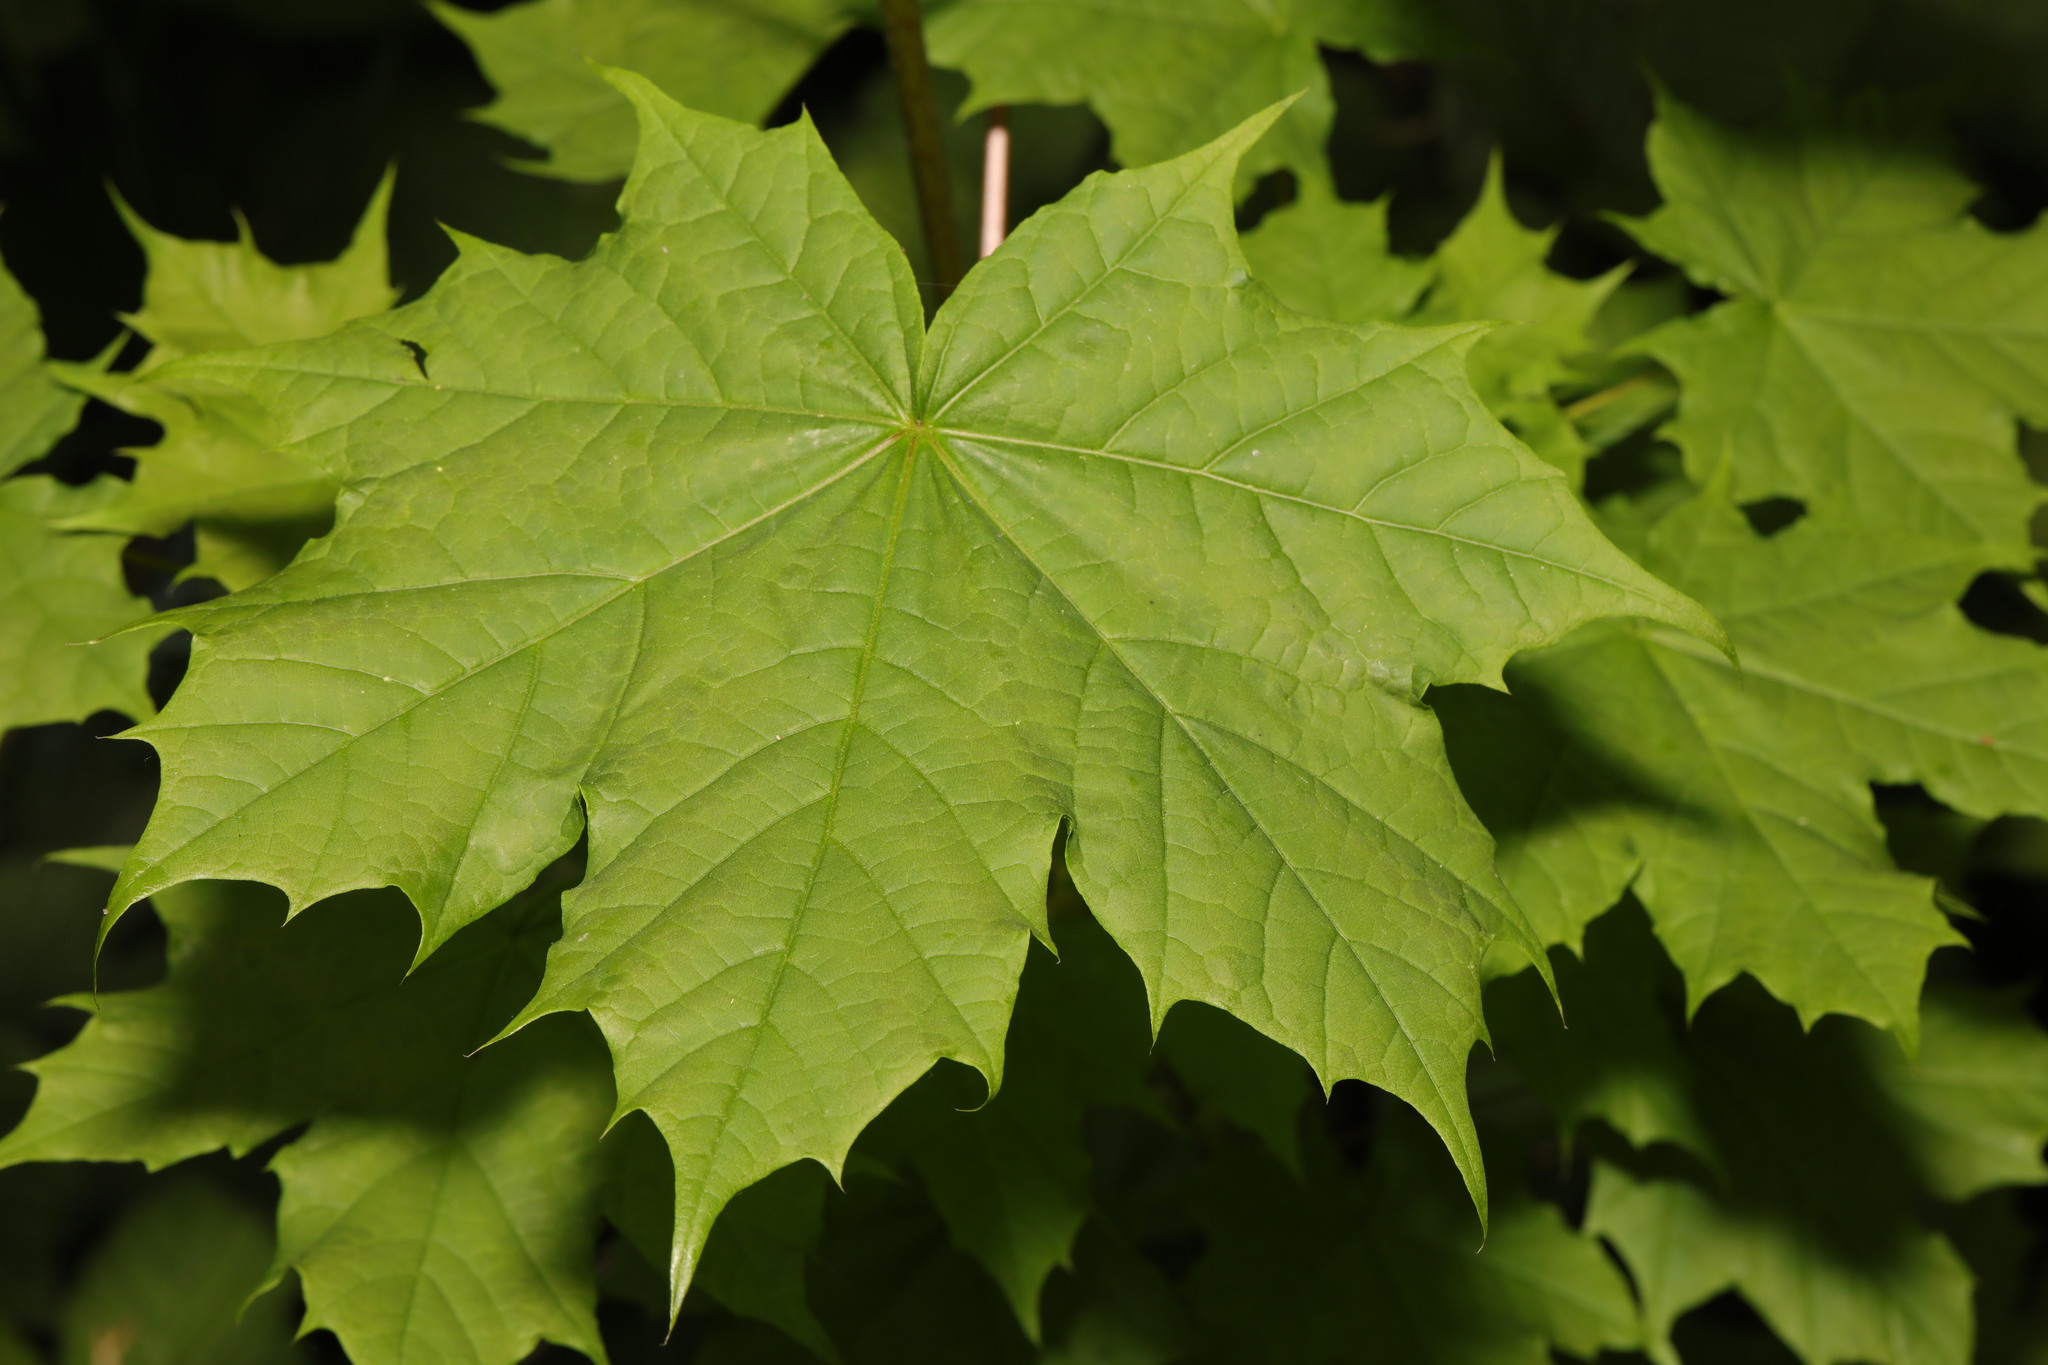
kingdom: Plantae
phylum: Tracheophyta
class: Magnoliopsida
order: Sapindales
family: Sapindaceae
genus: Acer
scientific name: Acer platanoides
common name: Norway maple
